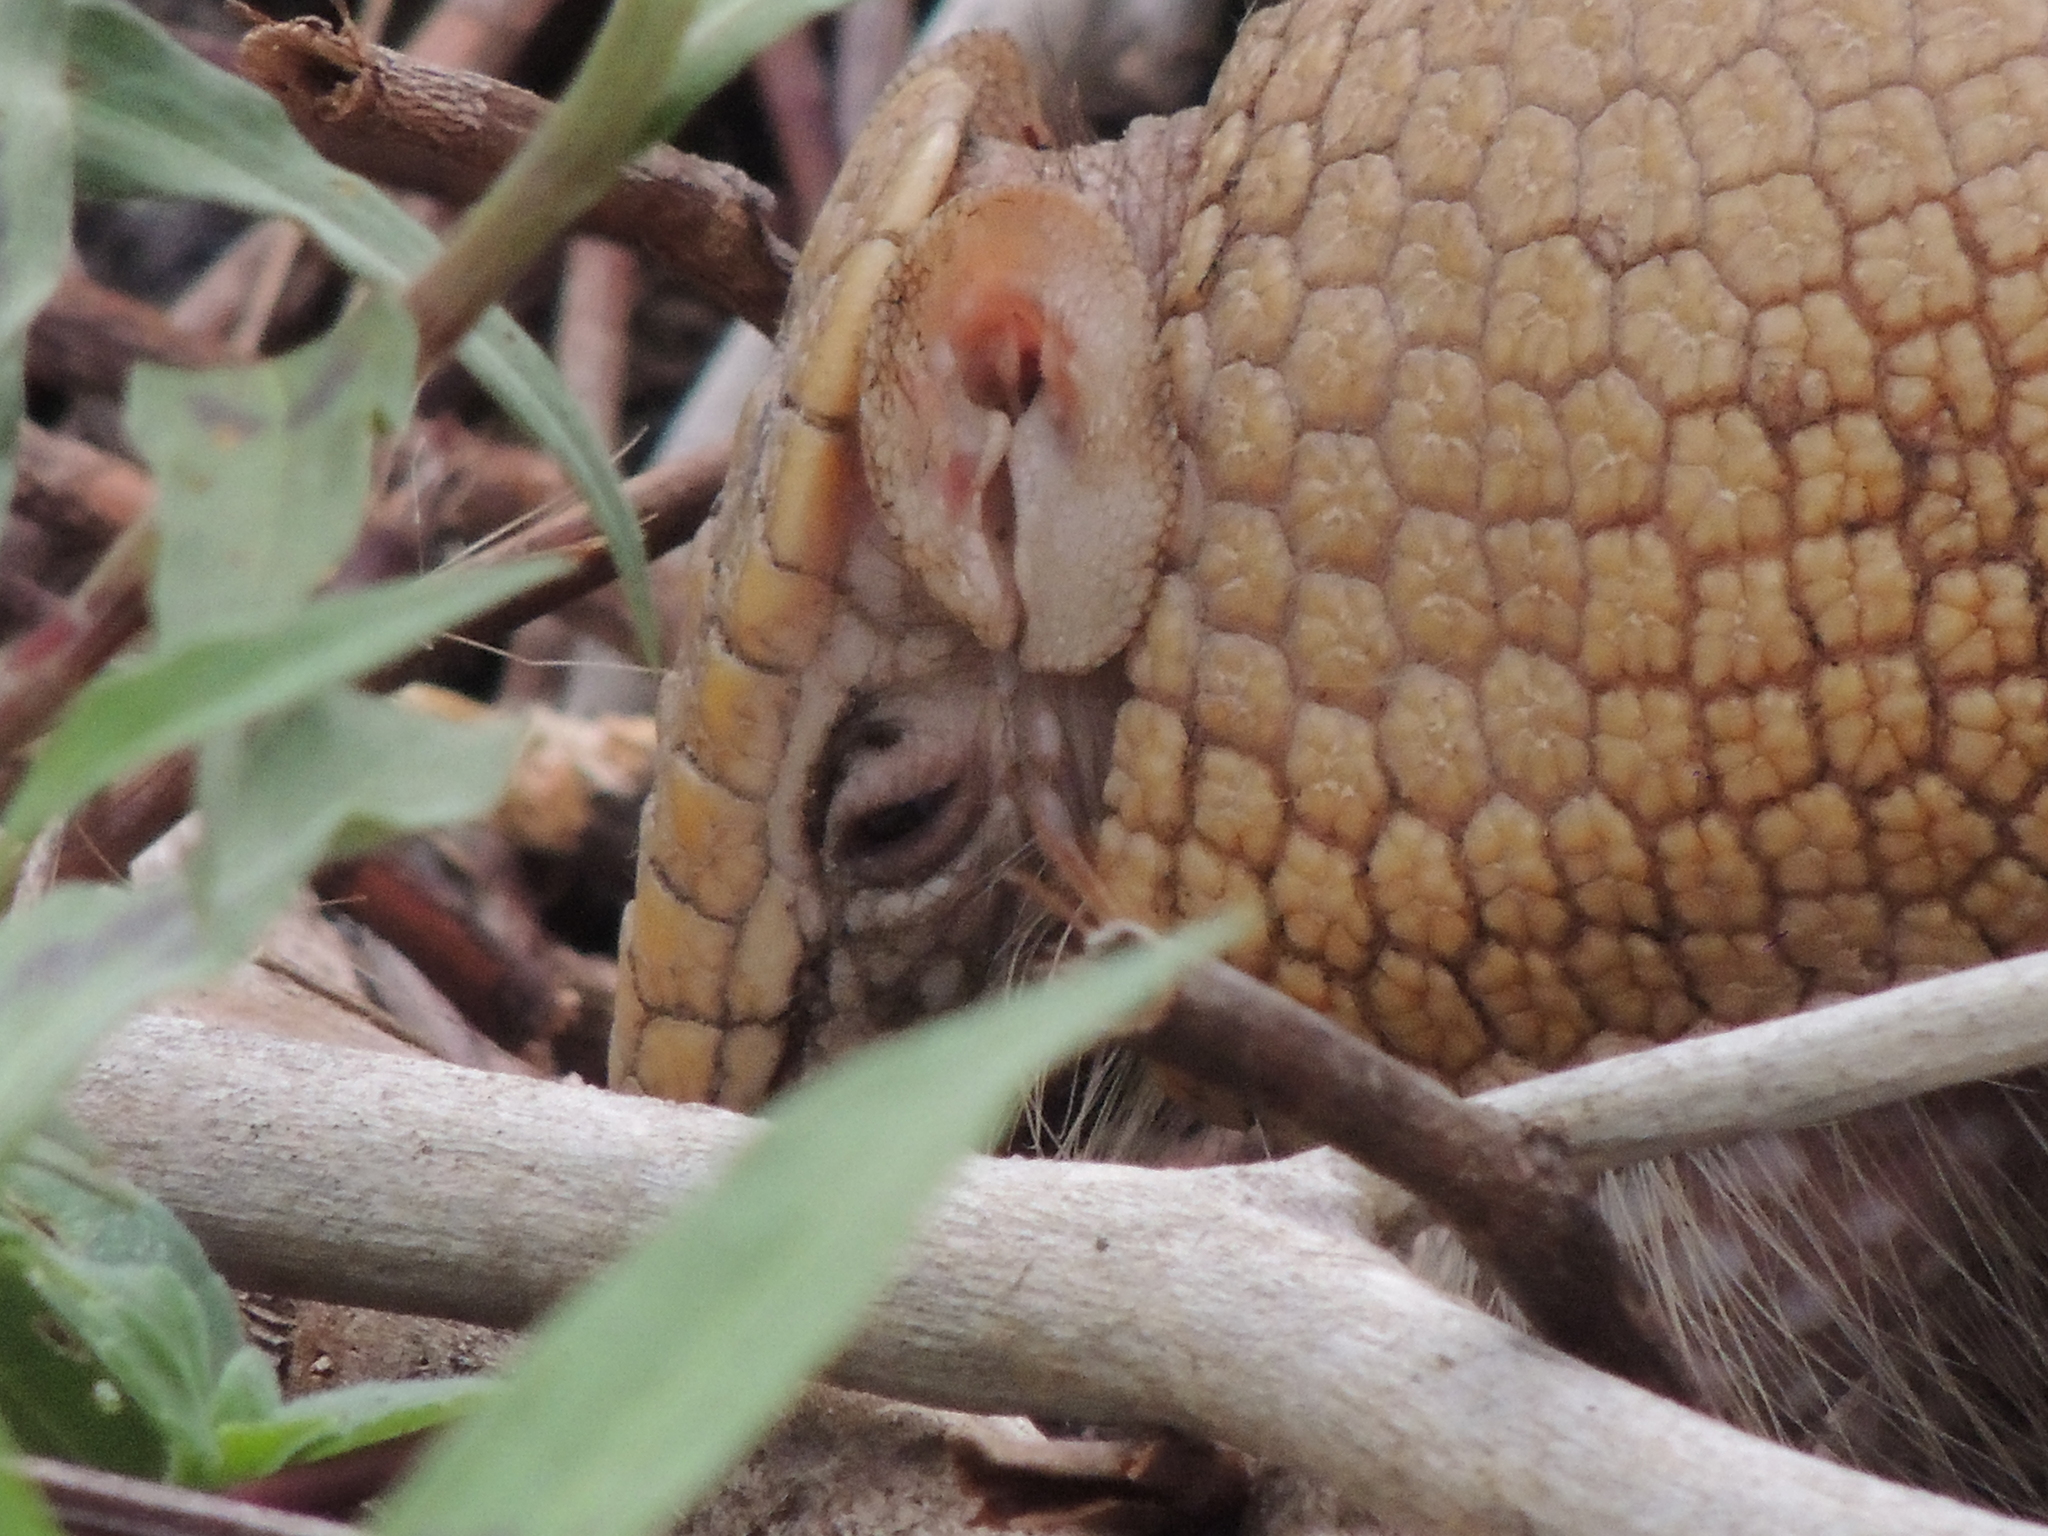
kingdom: Animalia
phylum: Chordata
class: Mammalia
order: Cingulata
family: Dasypodidae
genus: Tolypeutes
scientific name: Tolypeutes matacus
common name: Southern three-banded armadillo
